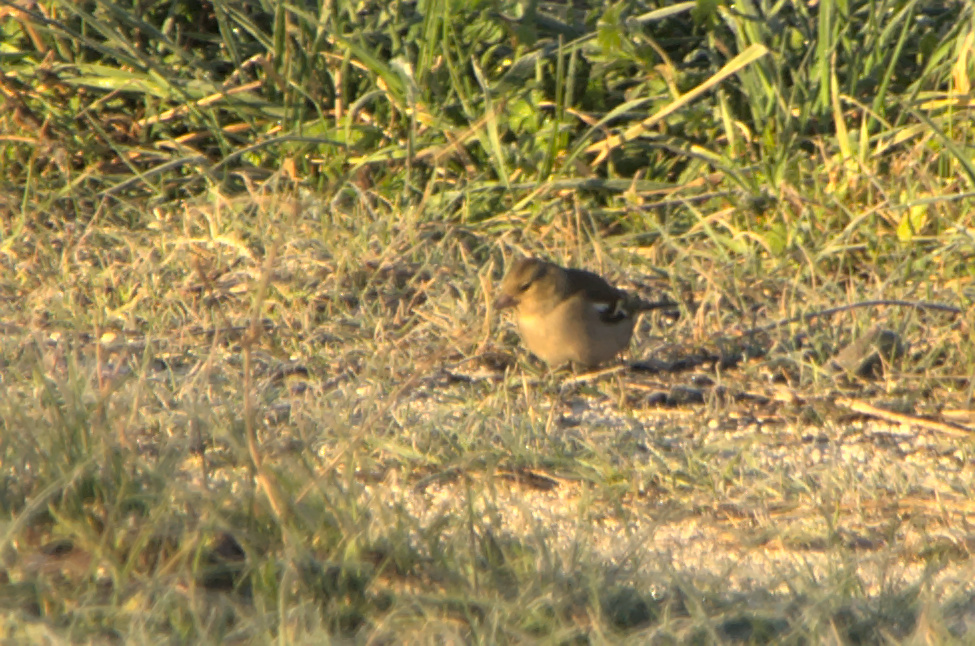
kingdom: Animalia
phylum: Chordata
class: Aves
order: Passeriformes
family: Fringillidae
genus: Fringilla
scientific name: Fringilla coelebs
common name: Common chaffinch
